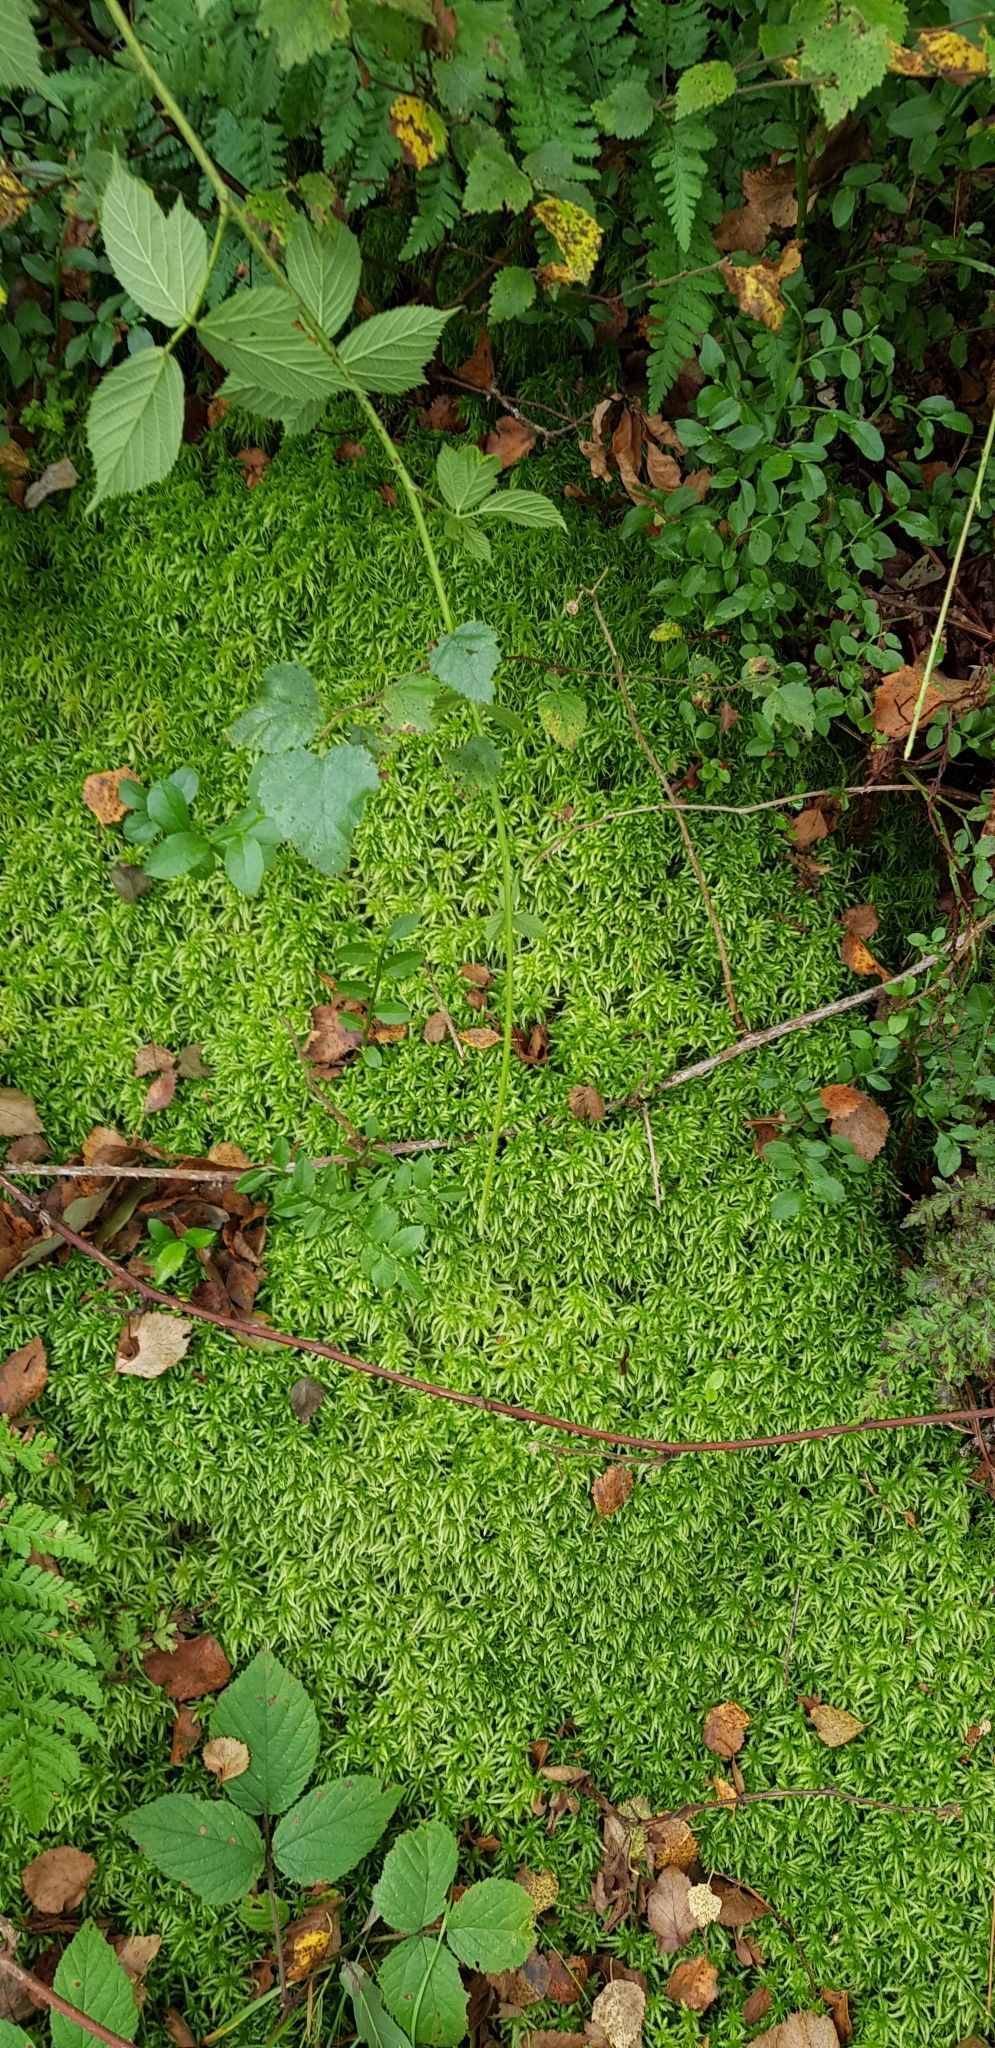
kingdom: Plantae
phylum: Bryophyta
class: Sphagnopsida
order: Sphagnales
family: Sphagnaceae
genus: Sphagnum
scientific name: Sphagnum palustre
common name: Blunt-leaved bog-moss
